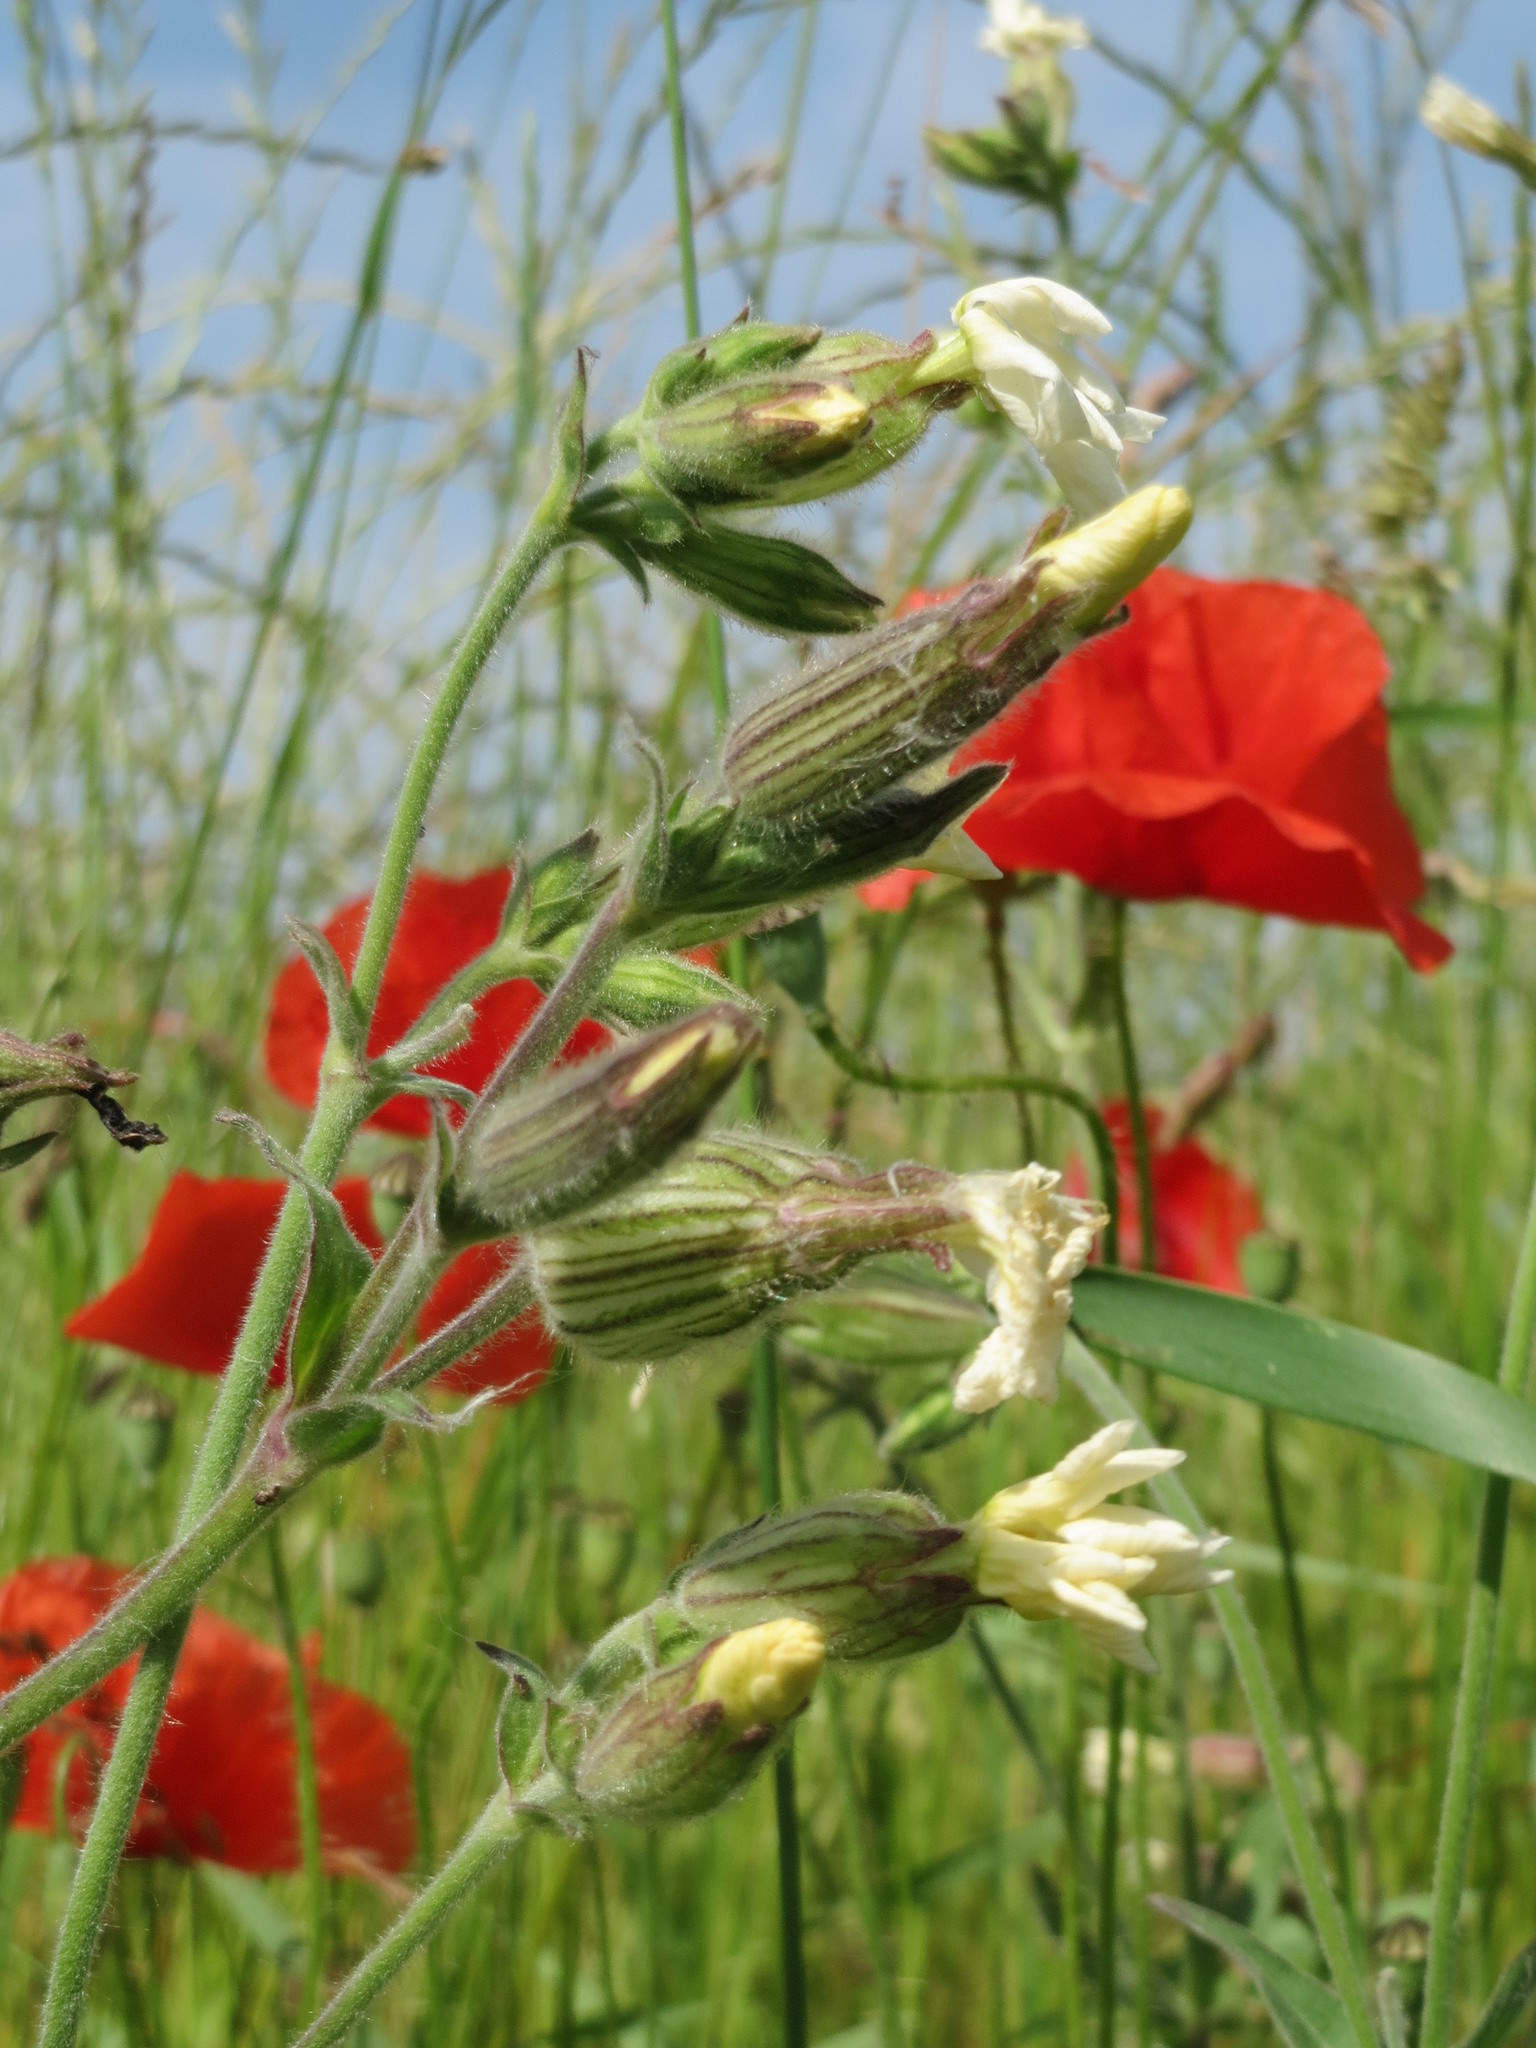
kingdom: Plantae
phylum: Tracheophyta
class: Magnoliopsida
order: Caryophyllales
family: Caryophyllaceae
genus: Silene
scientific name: Silene latifolia
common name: White campion
